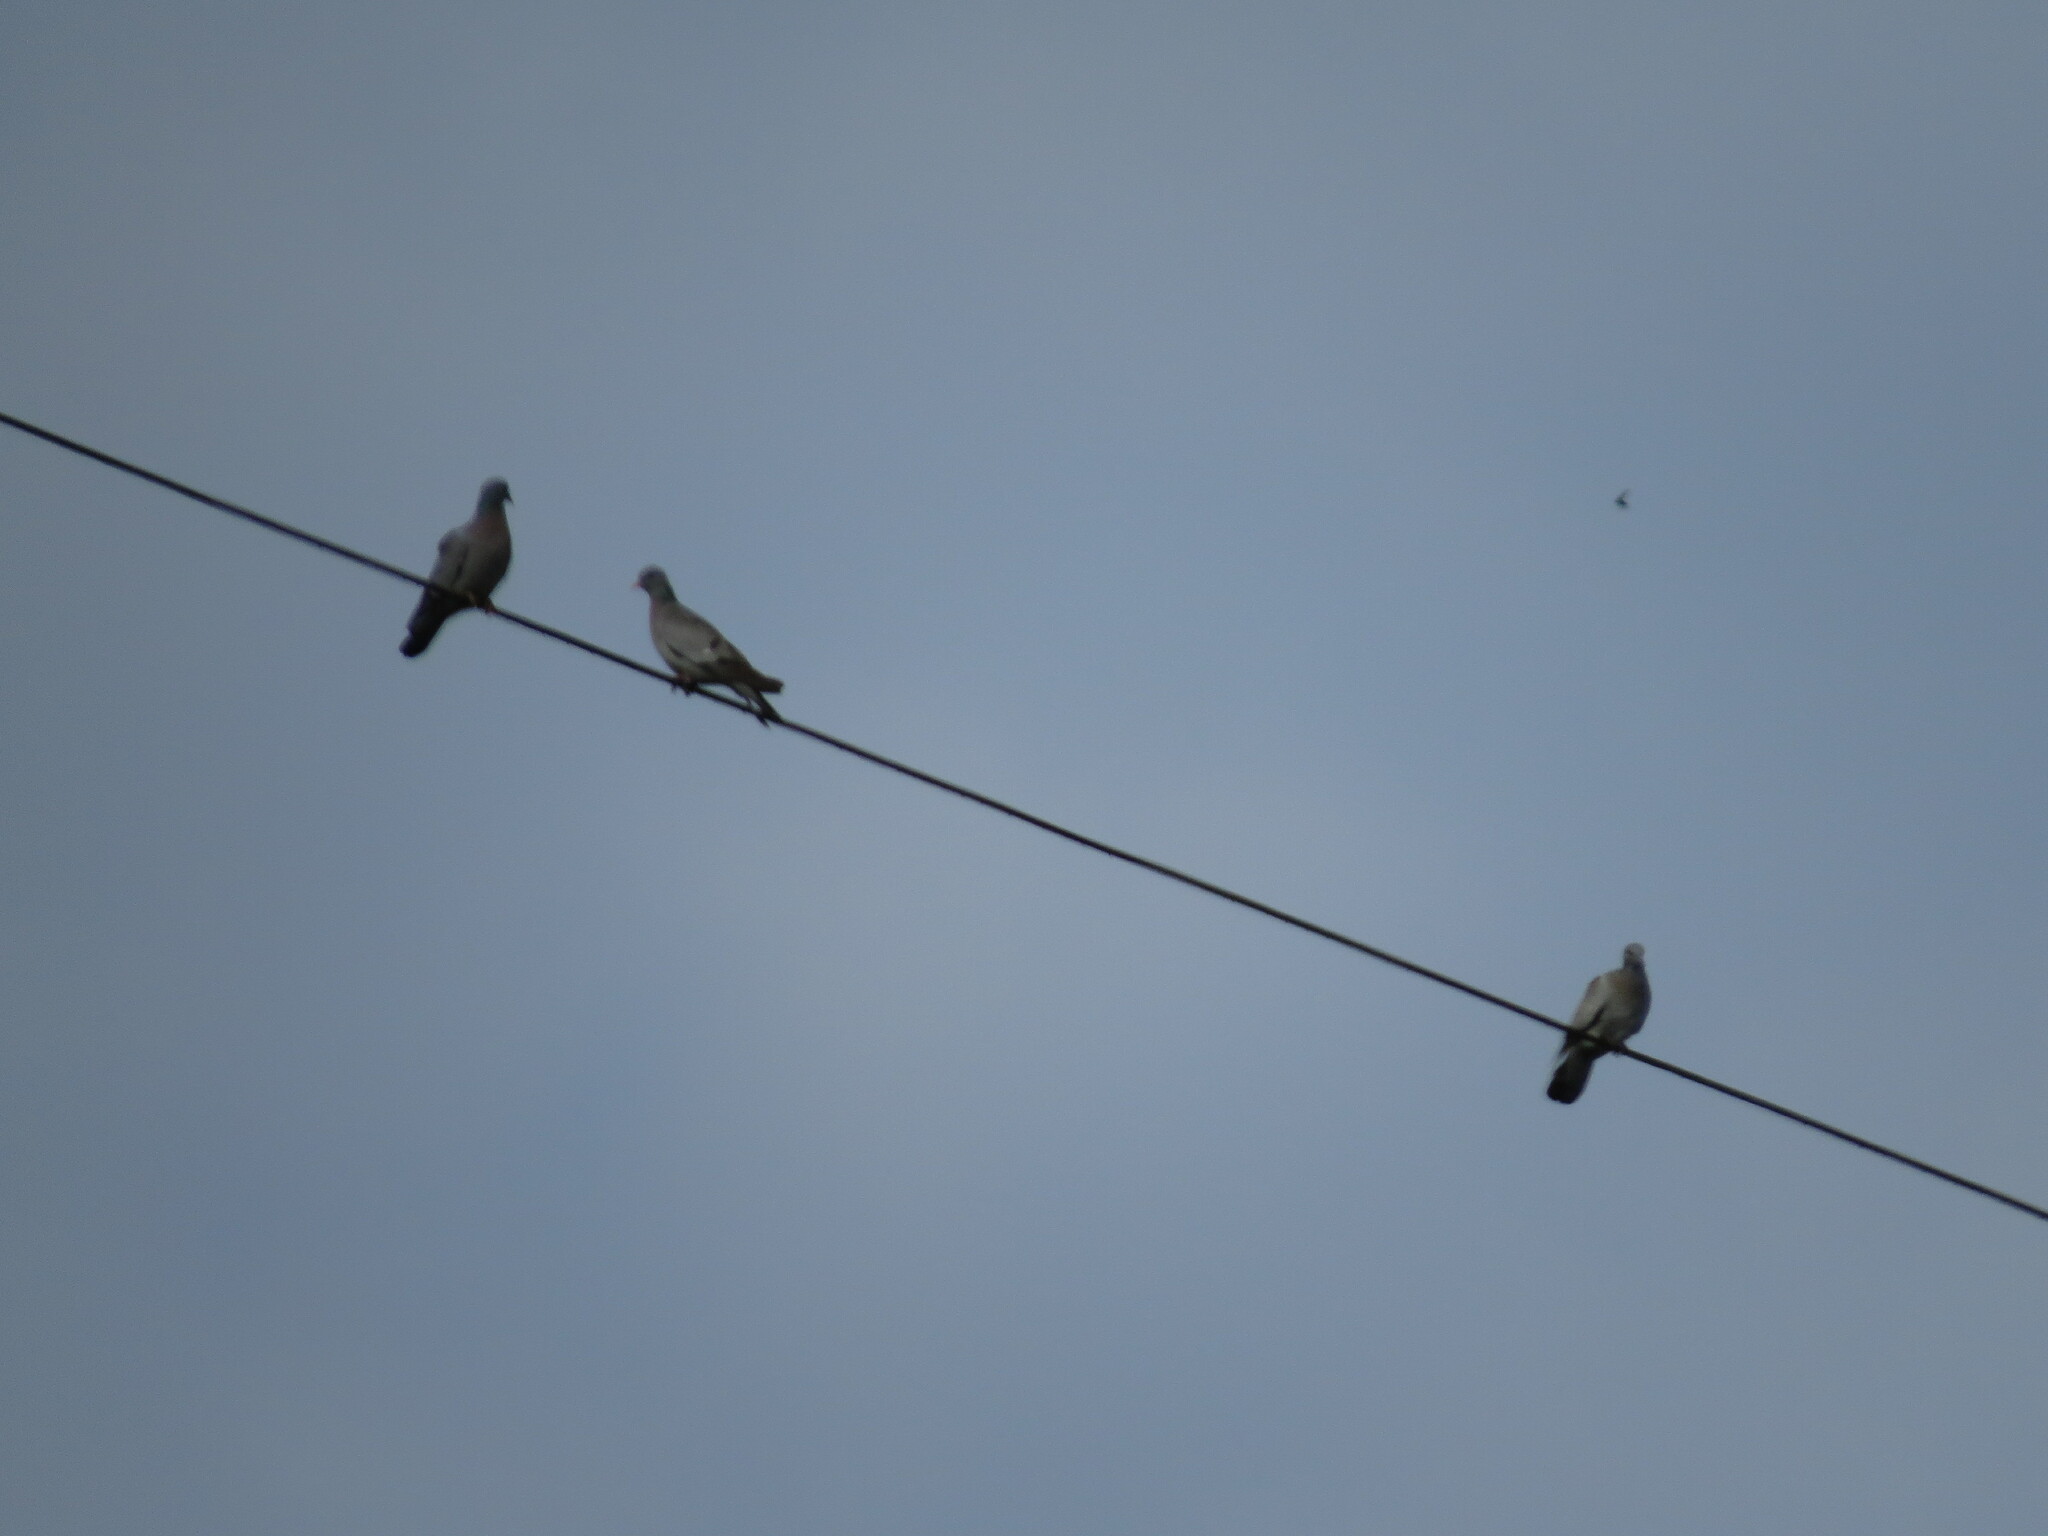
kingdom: Animalia
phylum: Chordata
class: Aves
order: Columbiformes
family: Columbidae
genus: Columba
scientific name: Columba oenas
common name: Stock dove
